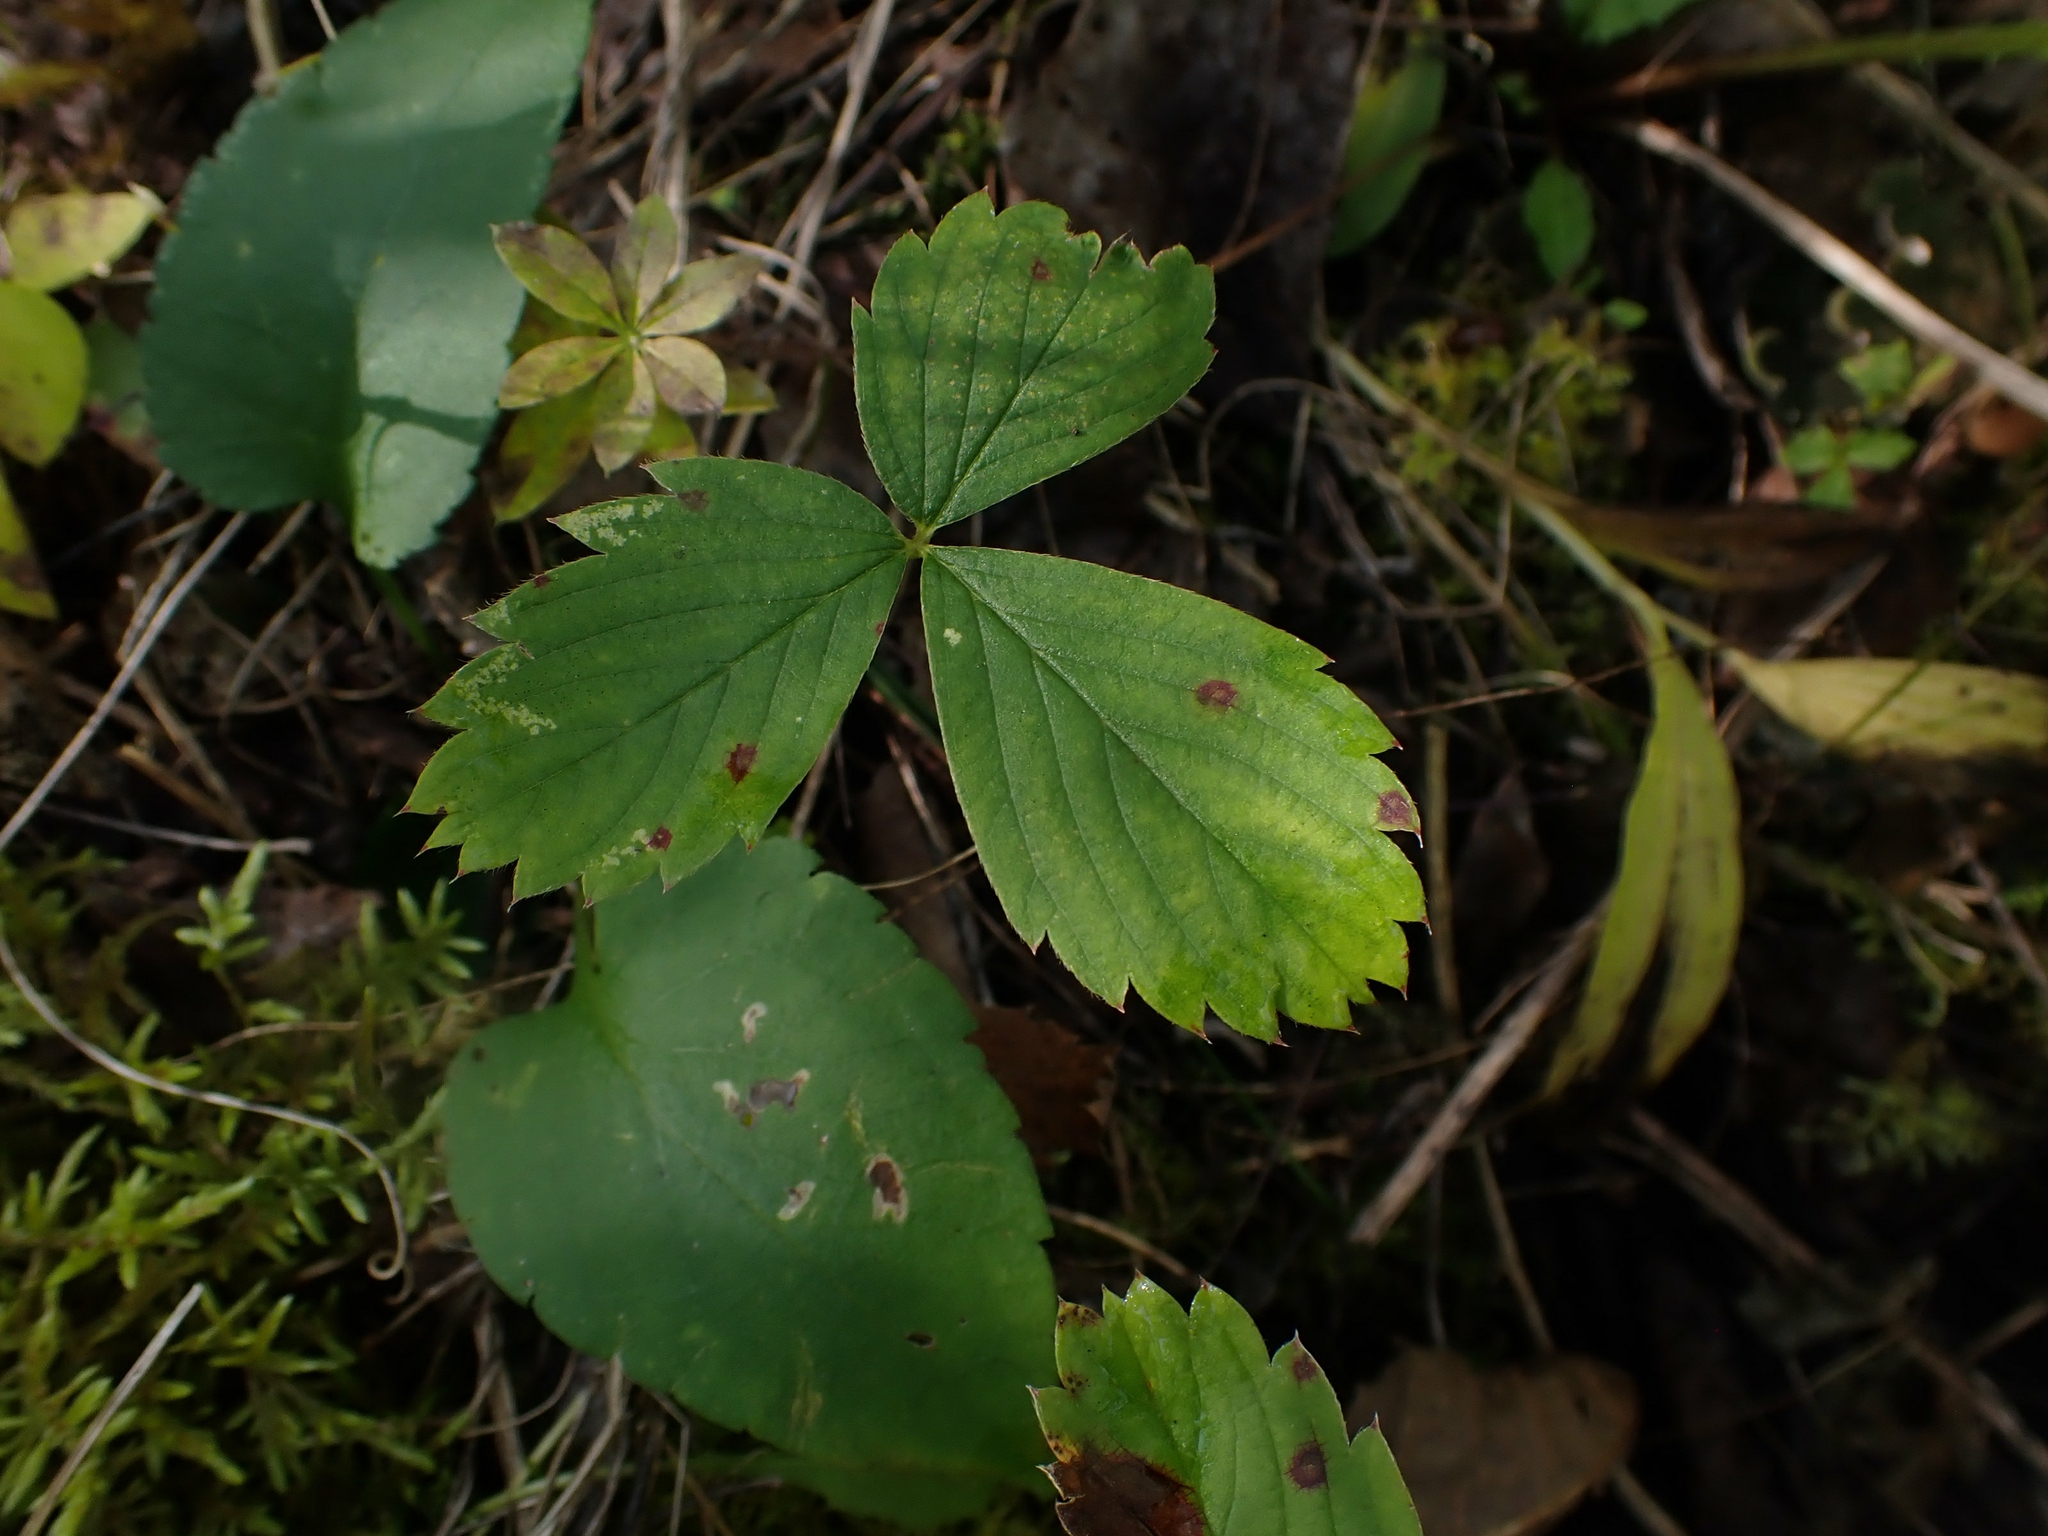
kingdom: Plantae
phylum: Tracheophyta
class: Magnoliopsida
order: Rosales
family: Rosaceae
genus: Fragaria
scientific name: Fragaria virginiana
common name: Thickleaved wild strawberry
